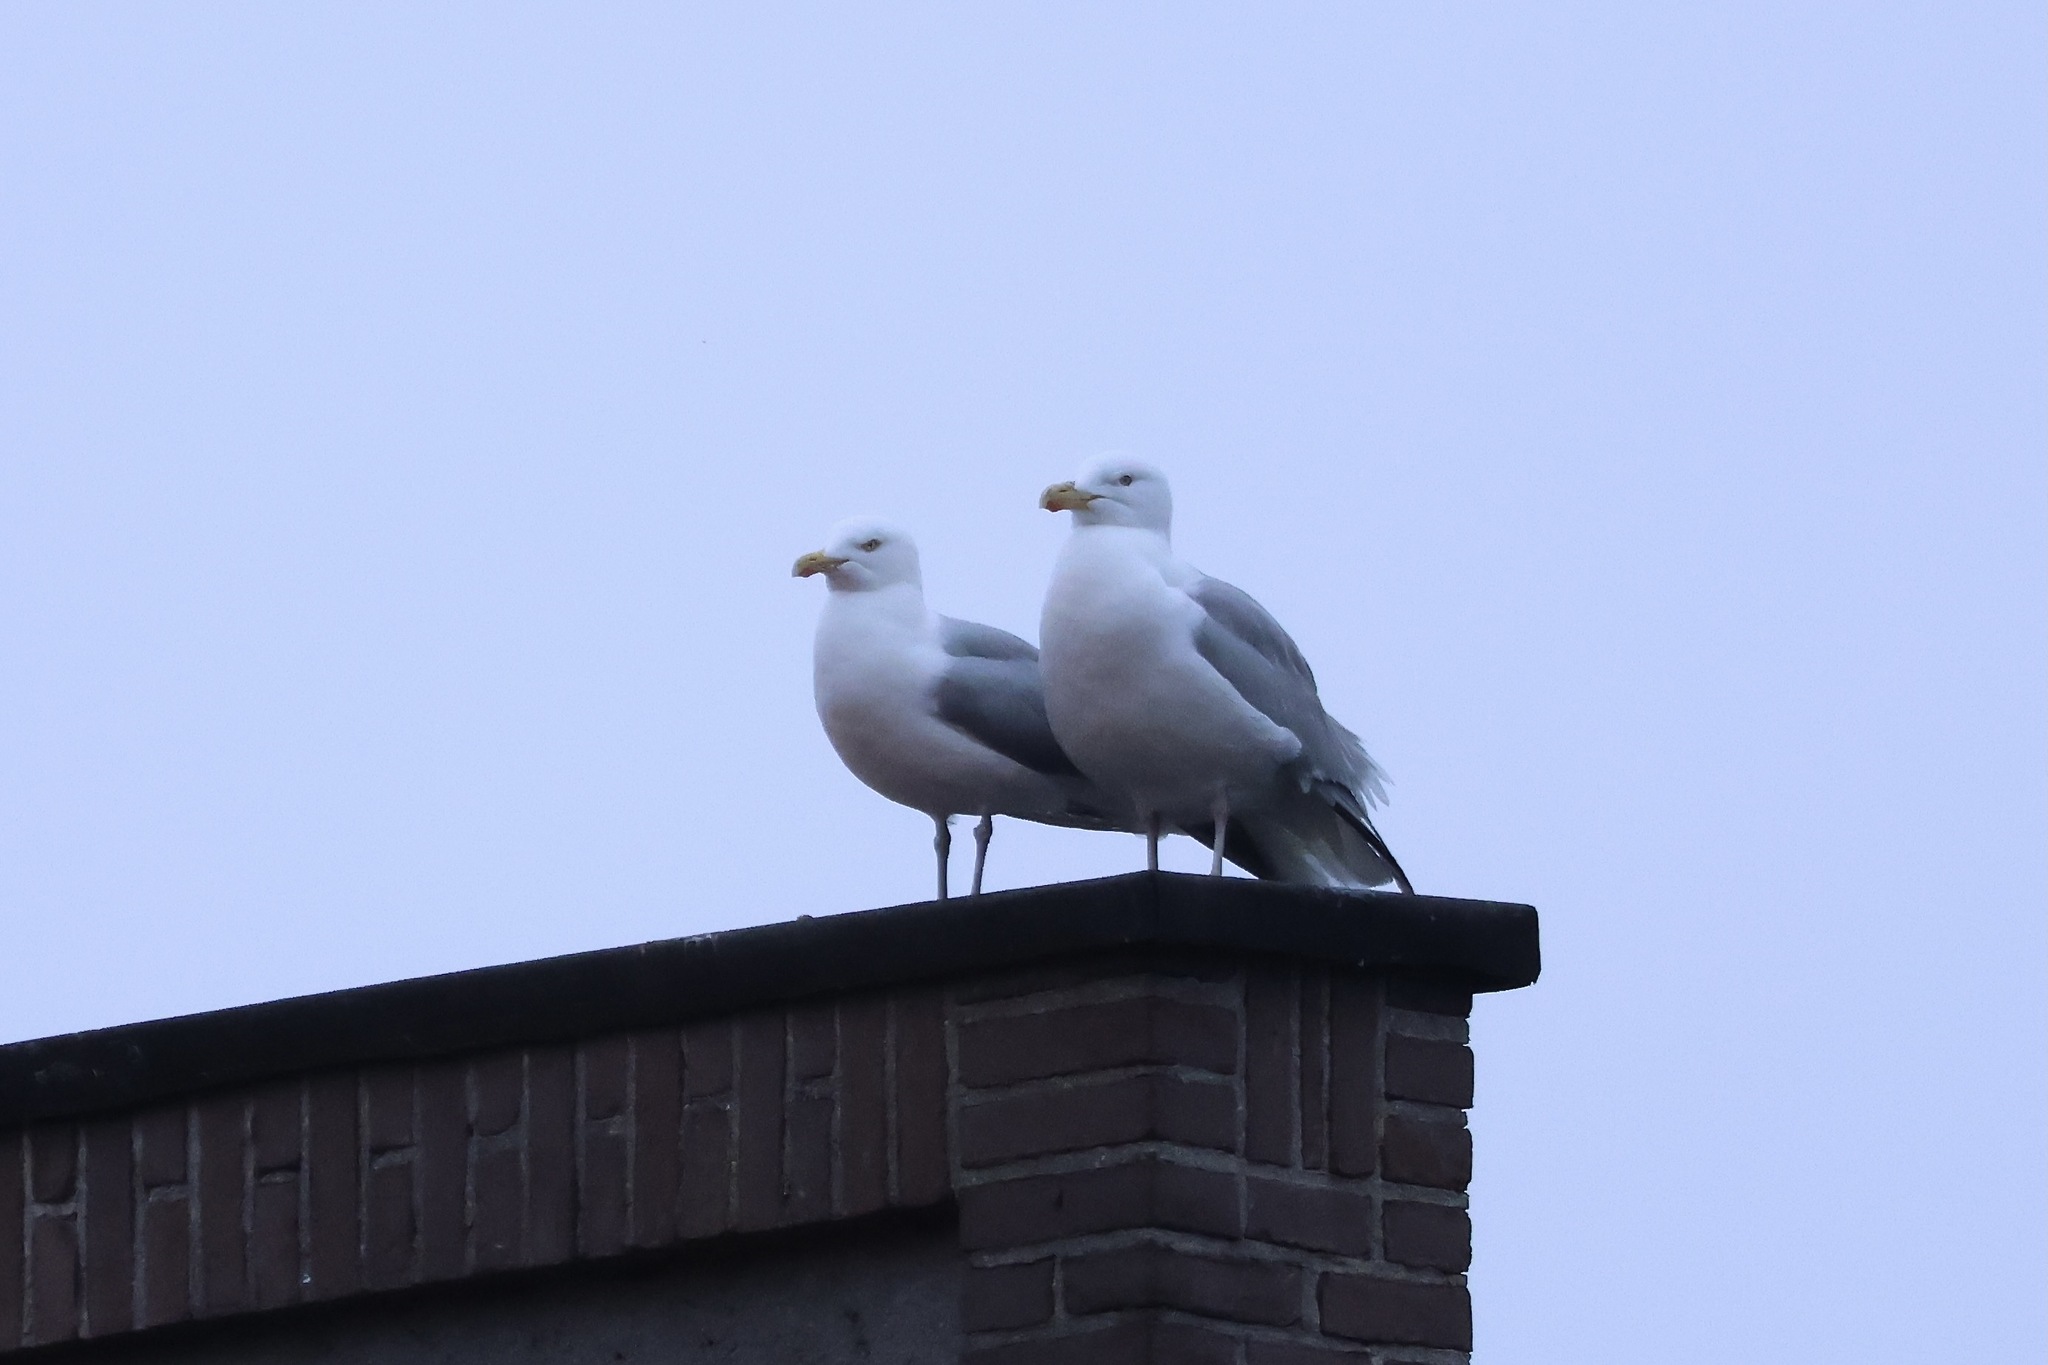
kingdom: Animalia
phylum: Chordata
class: Aves
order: Charadriiformes
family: Laridae
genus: Larus
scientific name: Larus argentatus
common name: Herring gull
